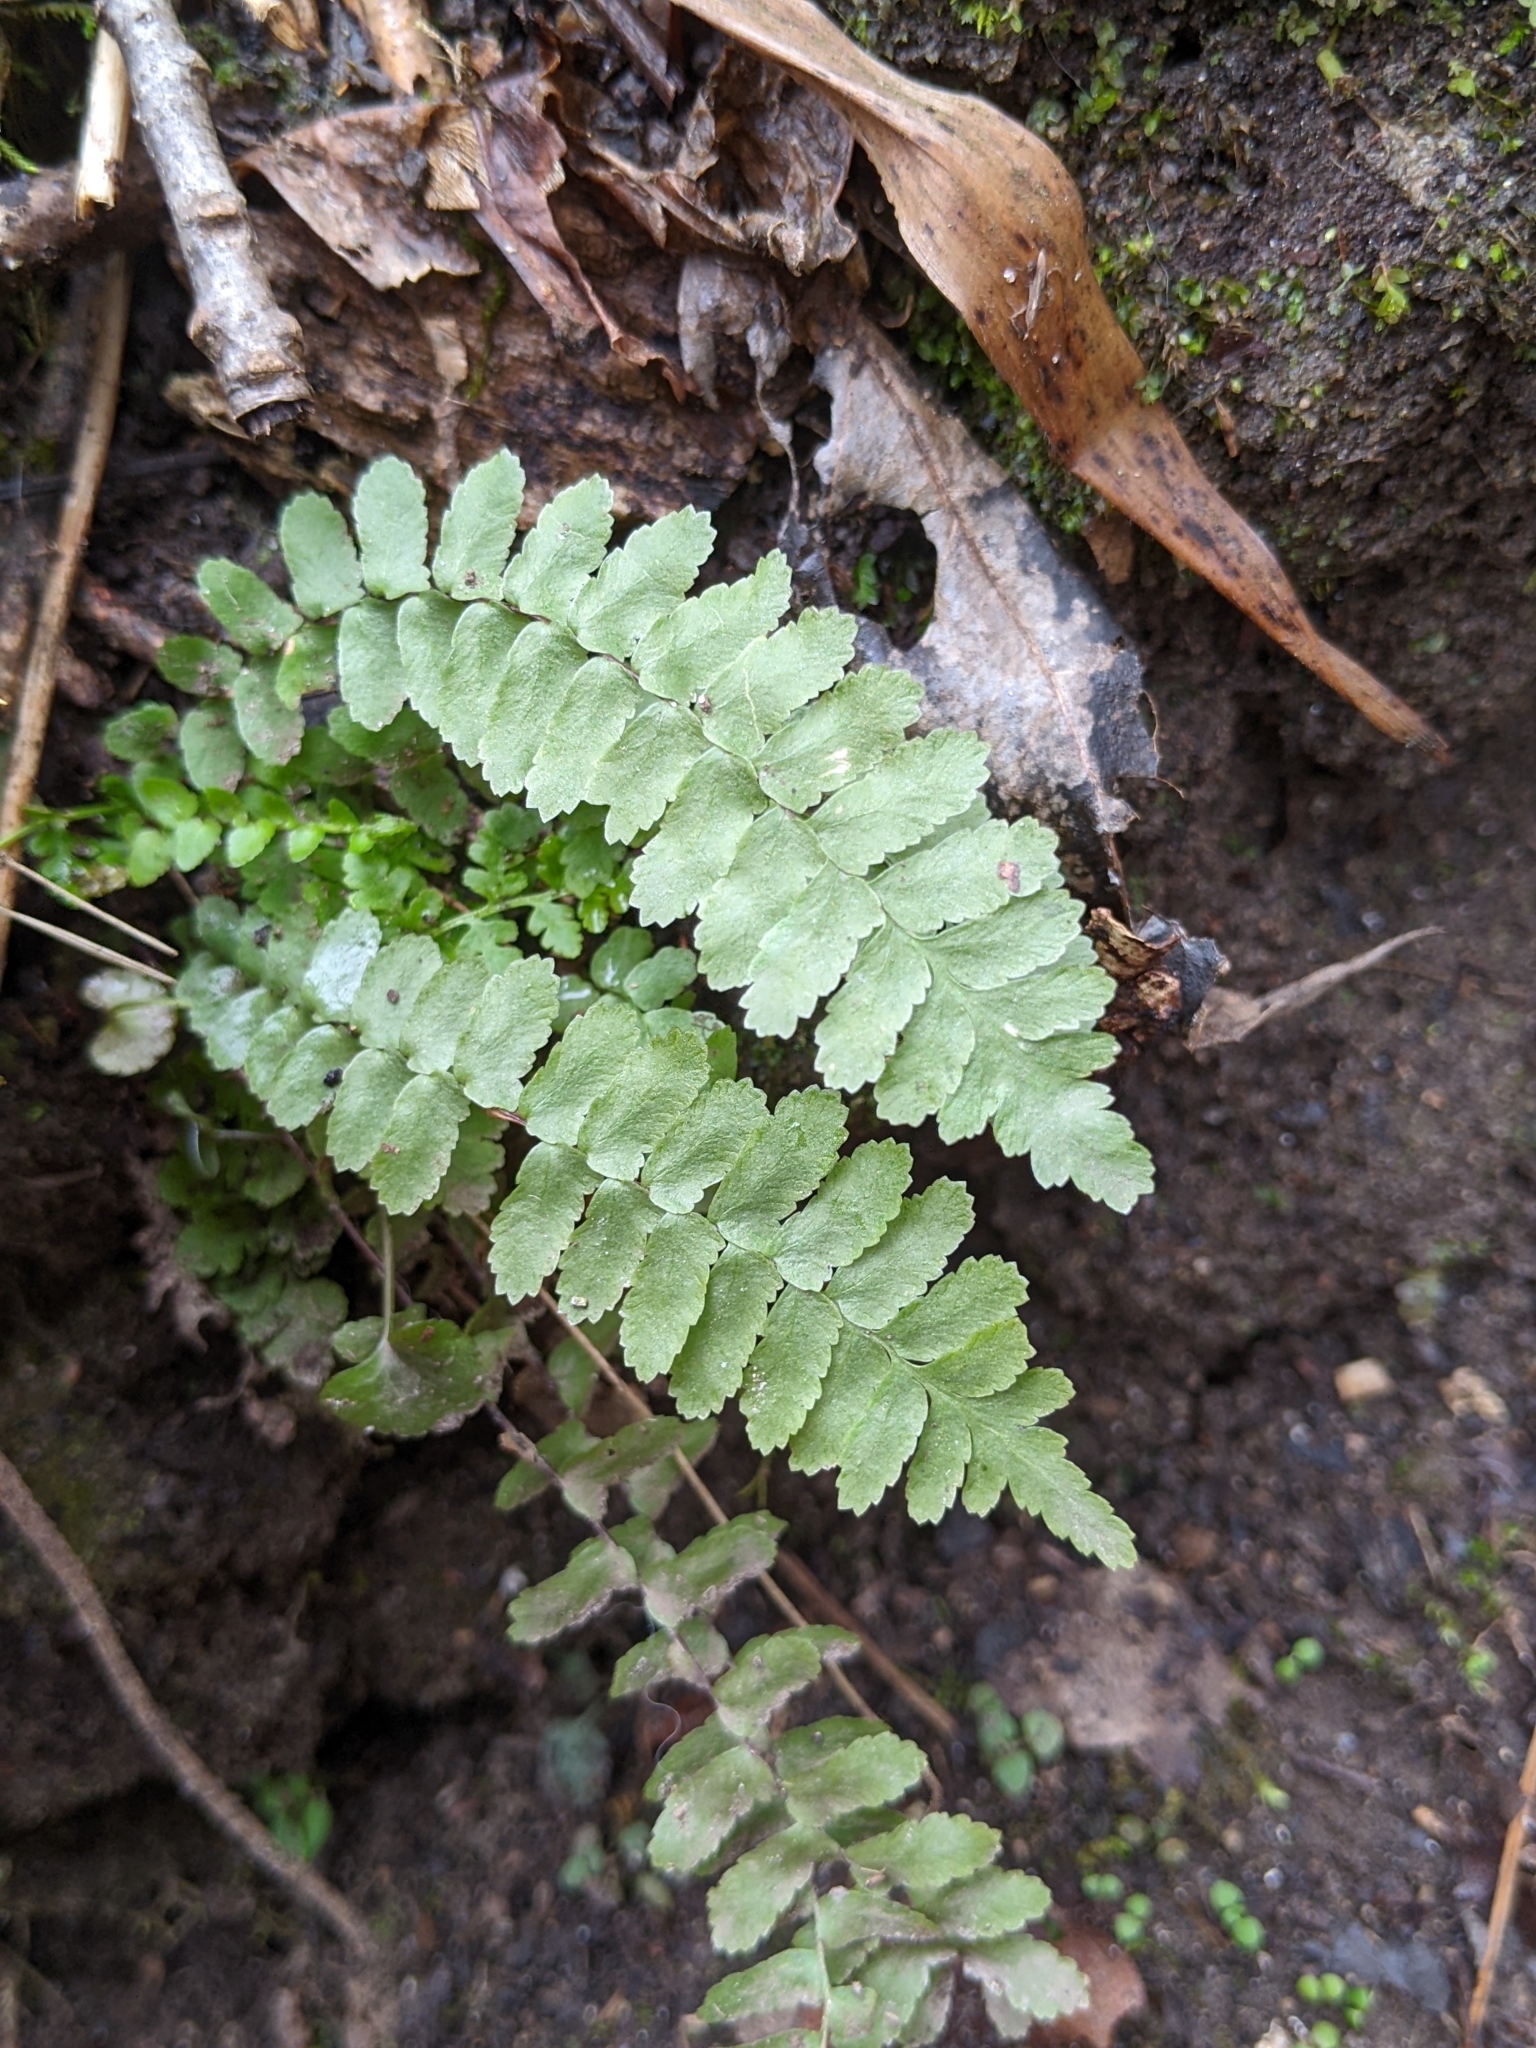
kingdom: Plantae
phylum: Tracheophyta
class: Polypodiopsida
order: Polypodiales
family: Aspleniaceae
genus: Asplenium
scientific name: Asplenium platyneuron
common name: Ebony spleenwort
